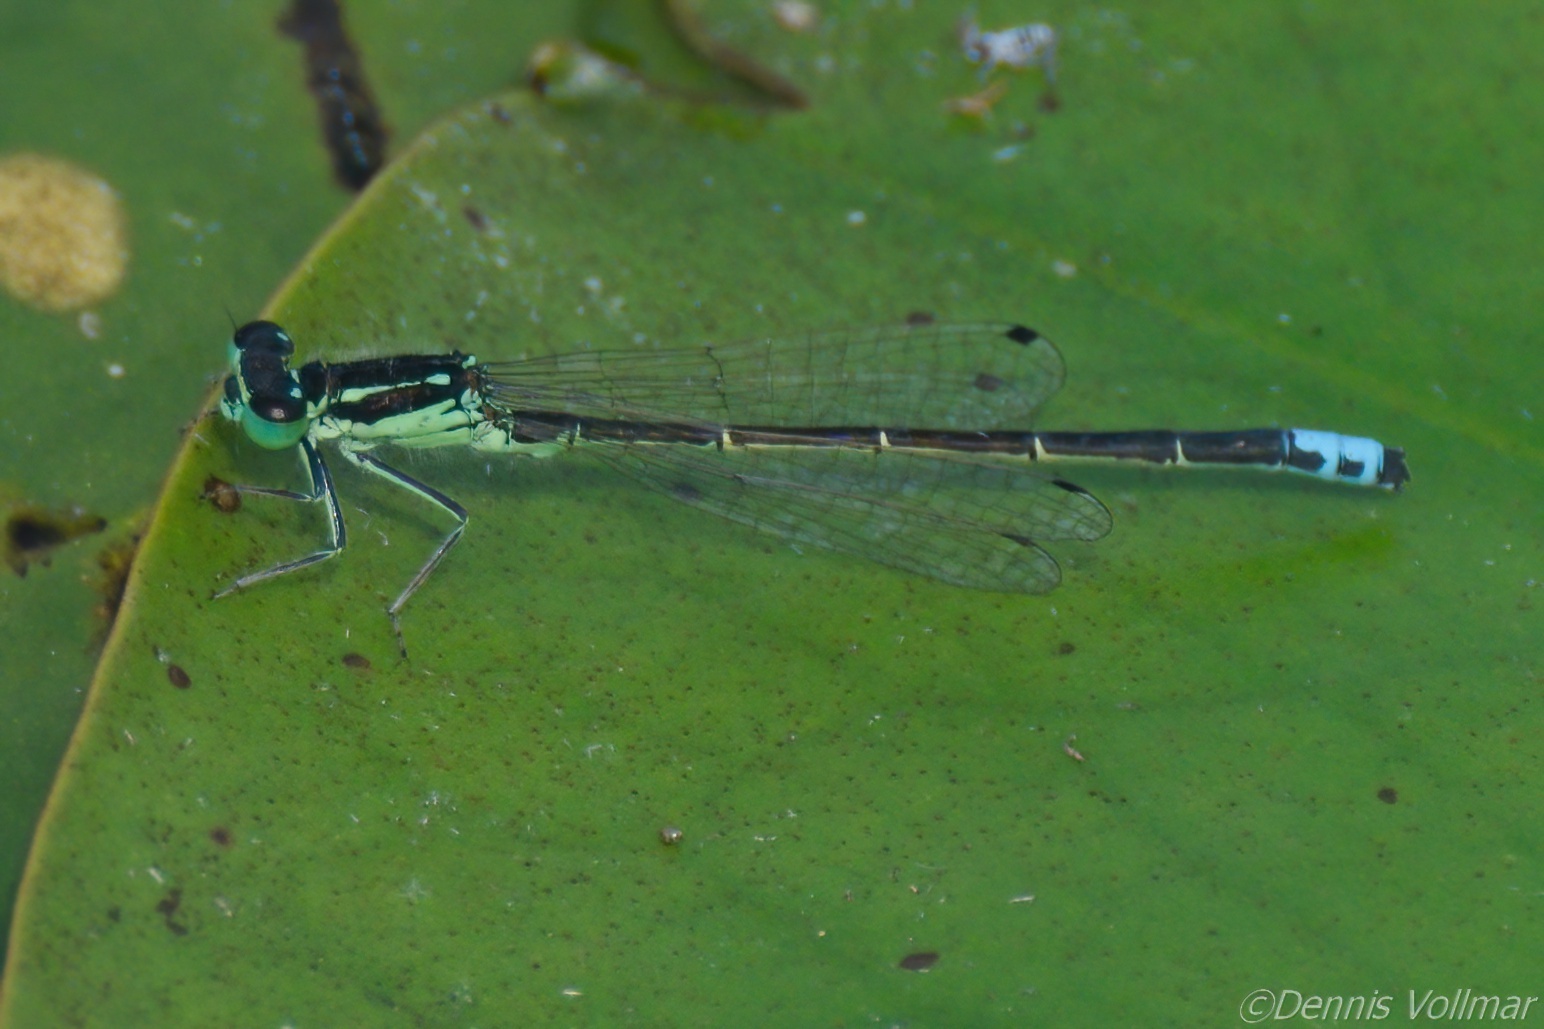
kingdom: Animalia
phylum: Arthropoda
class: Insecta
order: Odonata
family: Coenagrionidae
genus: Ischnura
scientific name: Ischnura verticalis
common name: Eastern forktail
